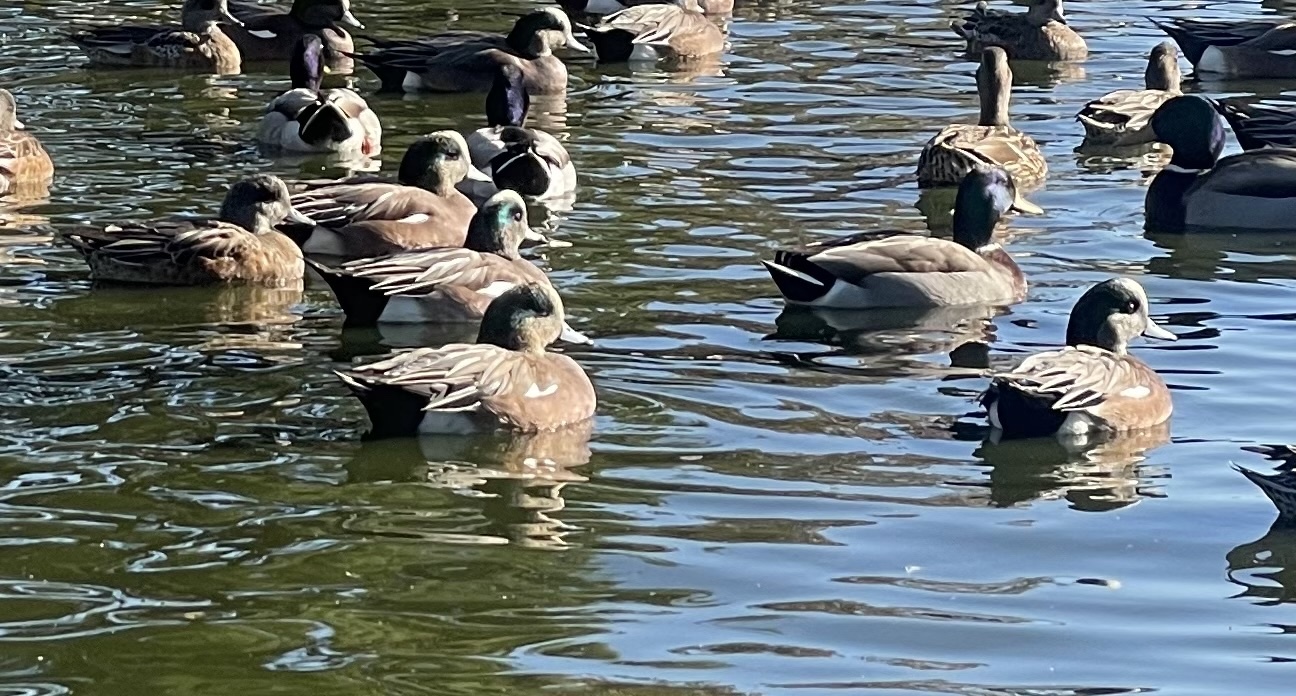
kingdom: Animalia
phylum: Chordata
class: Aves
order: Anseriformes
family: Anatidae
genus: Mareca
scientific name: Mareca americana
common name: American wigeon
